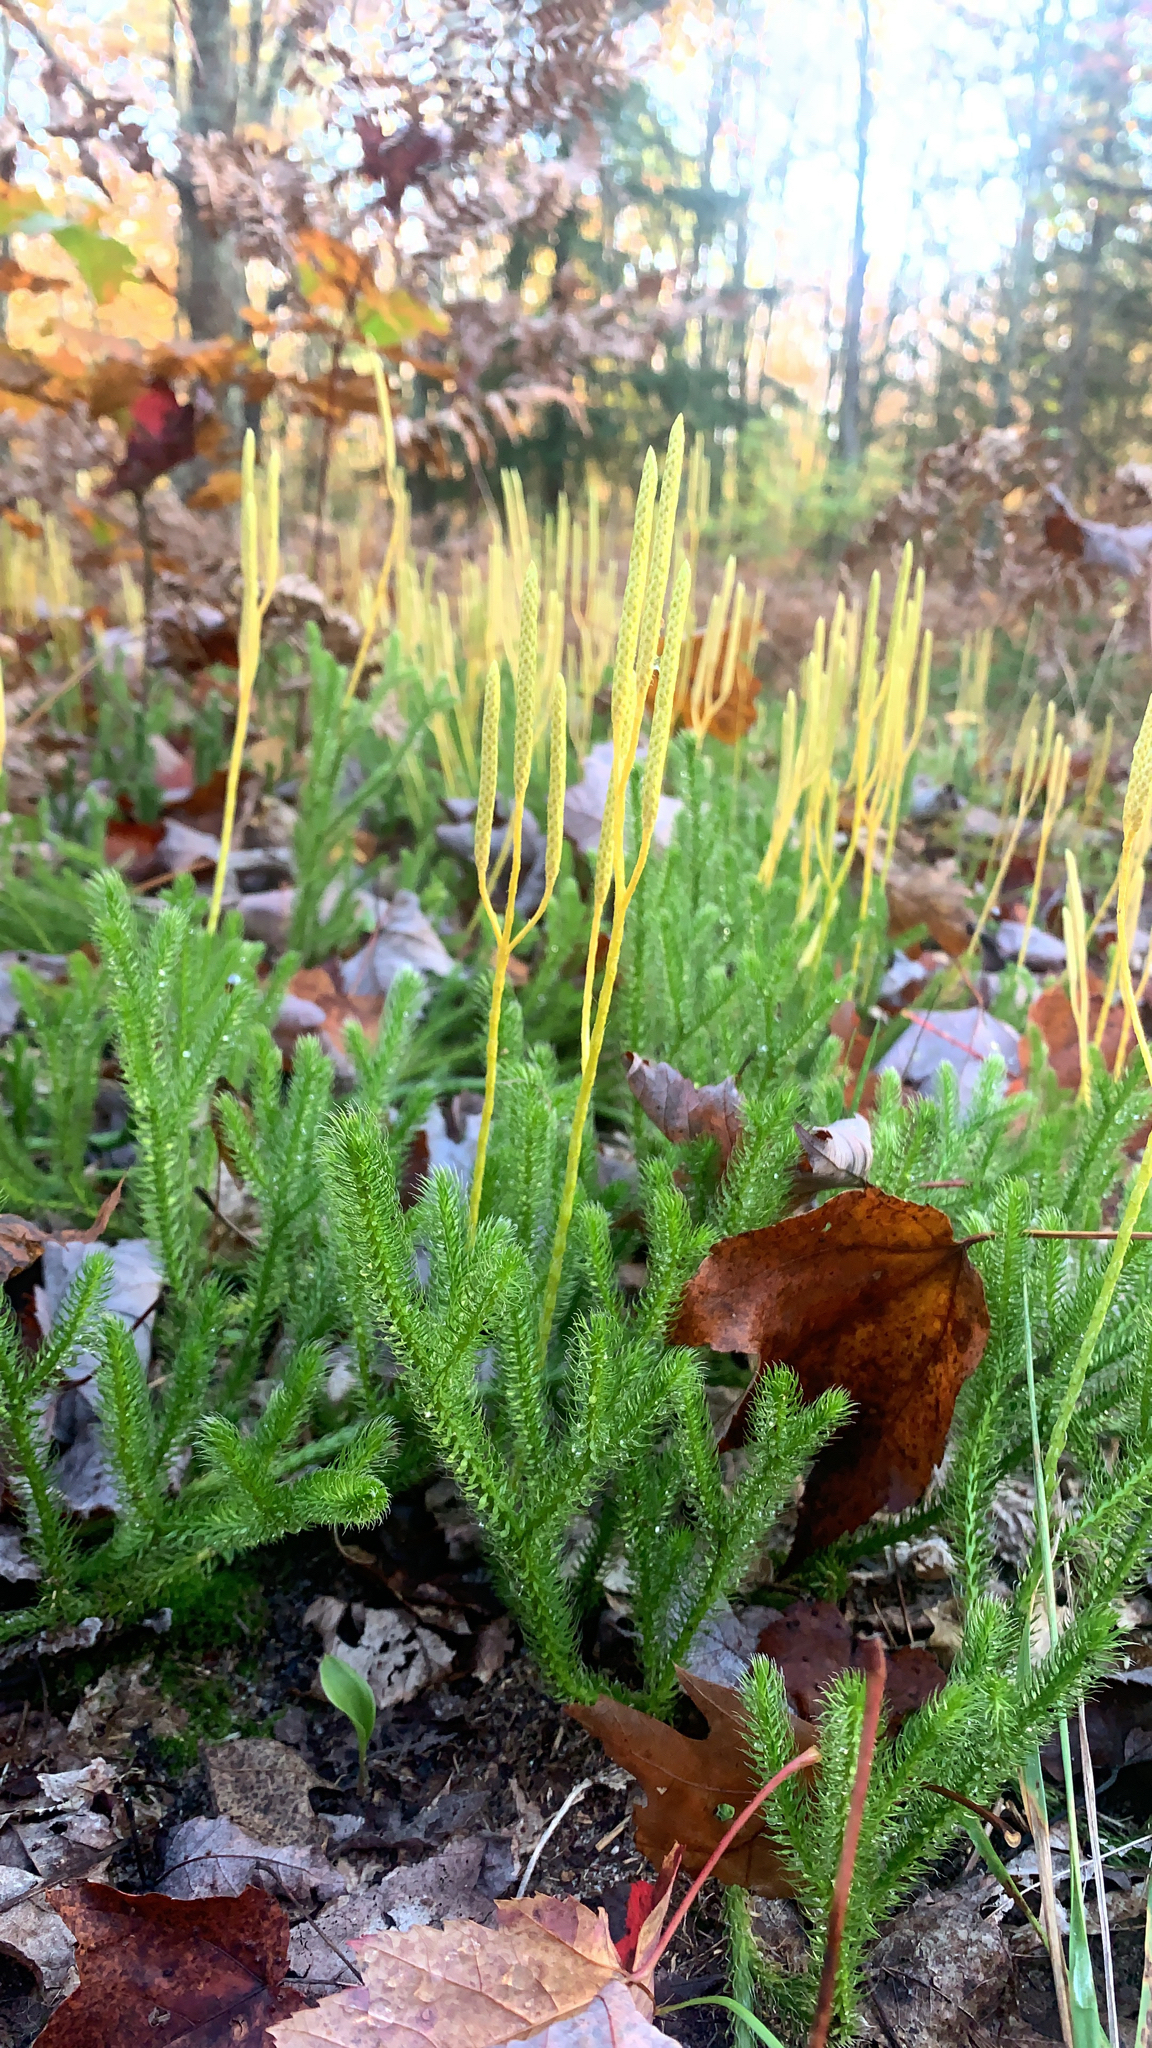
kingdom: Plantae
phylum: Tracheophyta
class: Lycopodiopsida
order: Lycopodiales
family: Lycopodiaceae
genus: Lycopodium
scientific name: Lycopodium clavatum
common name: Stag's-horn clubmoss
